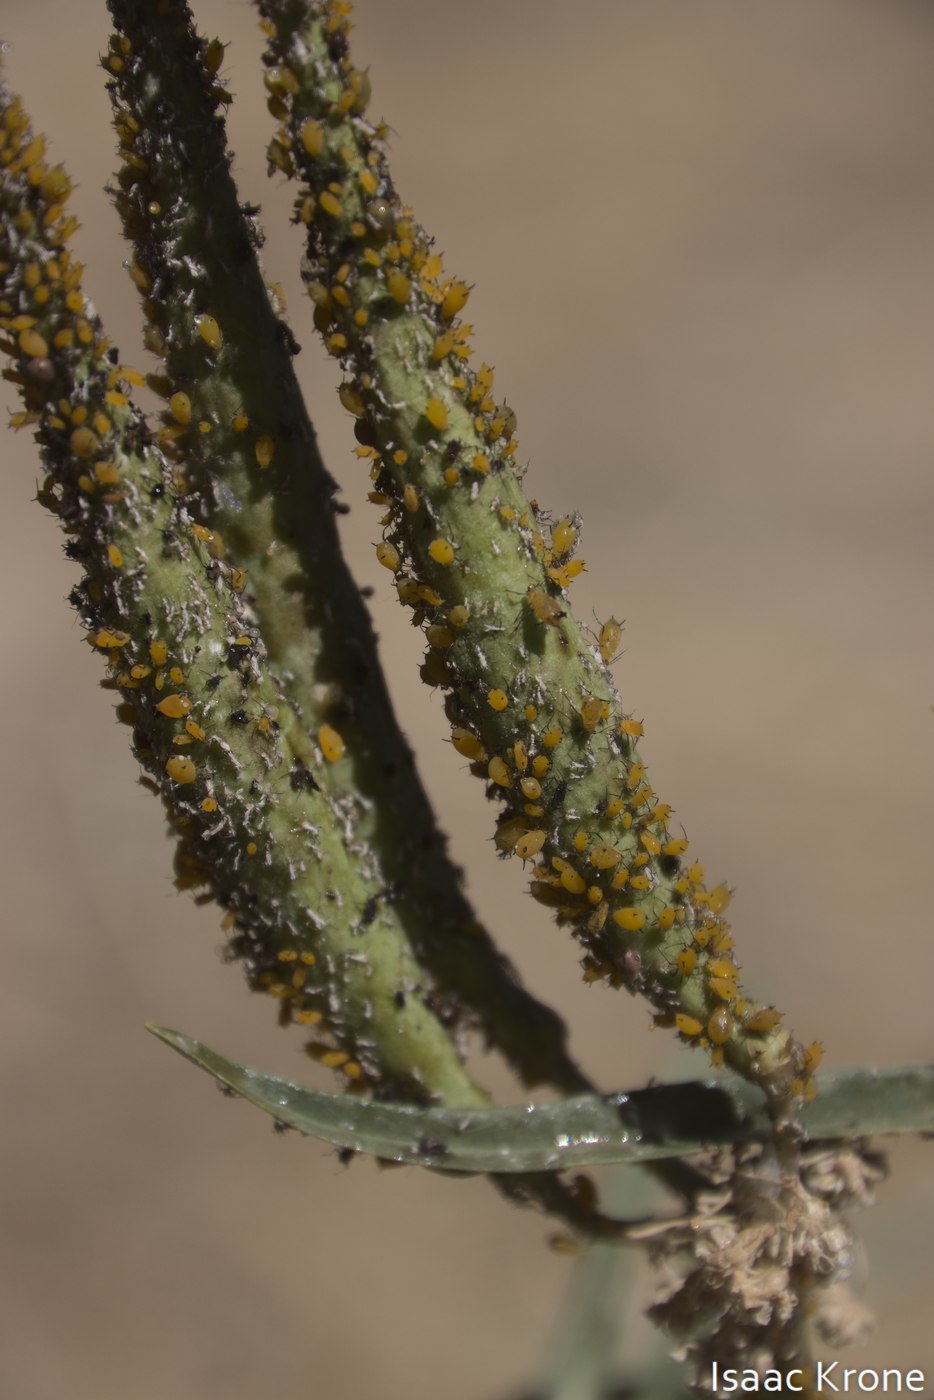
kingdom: Animalia
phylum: Arthropoda
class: Insecta
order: Hemiptera
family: Aphididae
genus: Aphis
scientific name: Aphis nerii
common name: Oleander aphid
